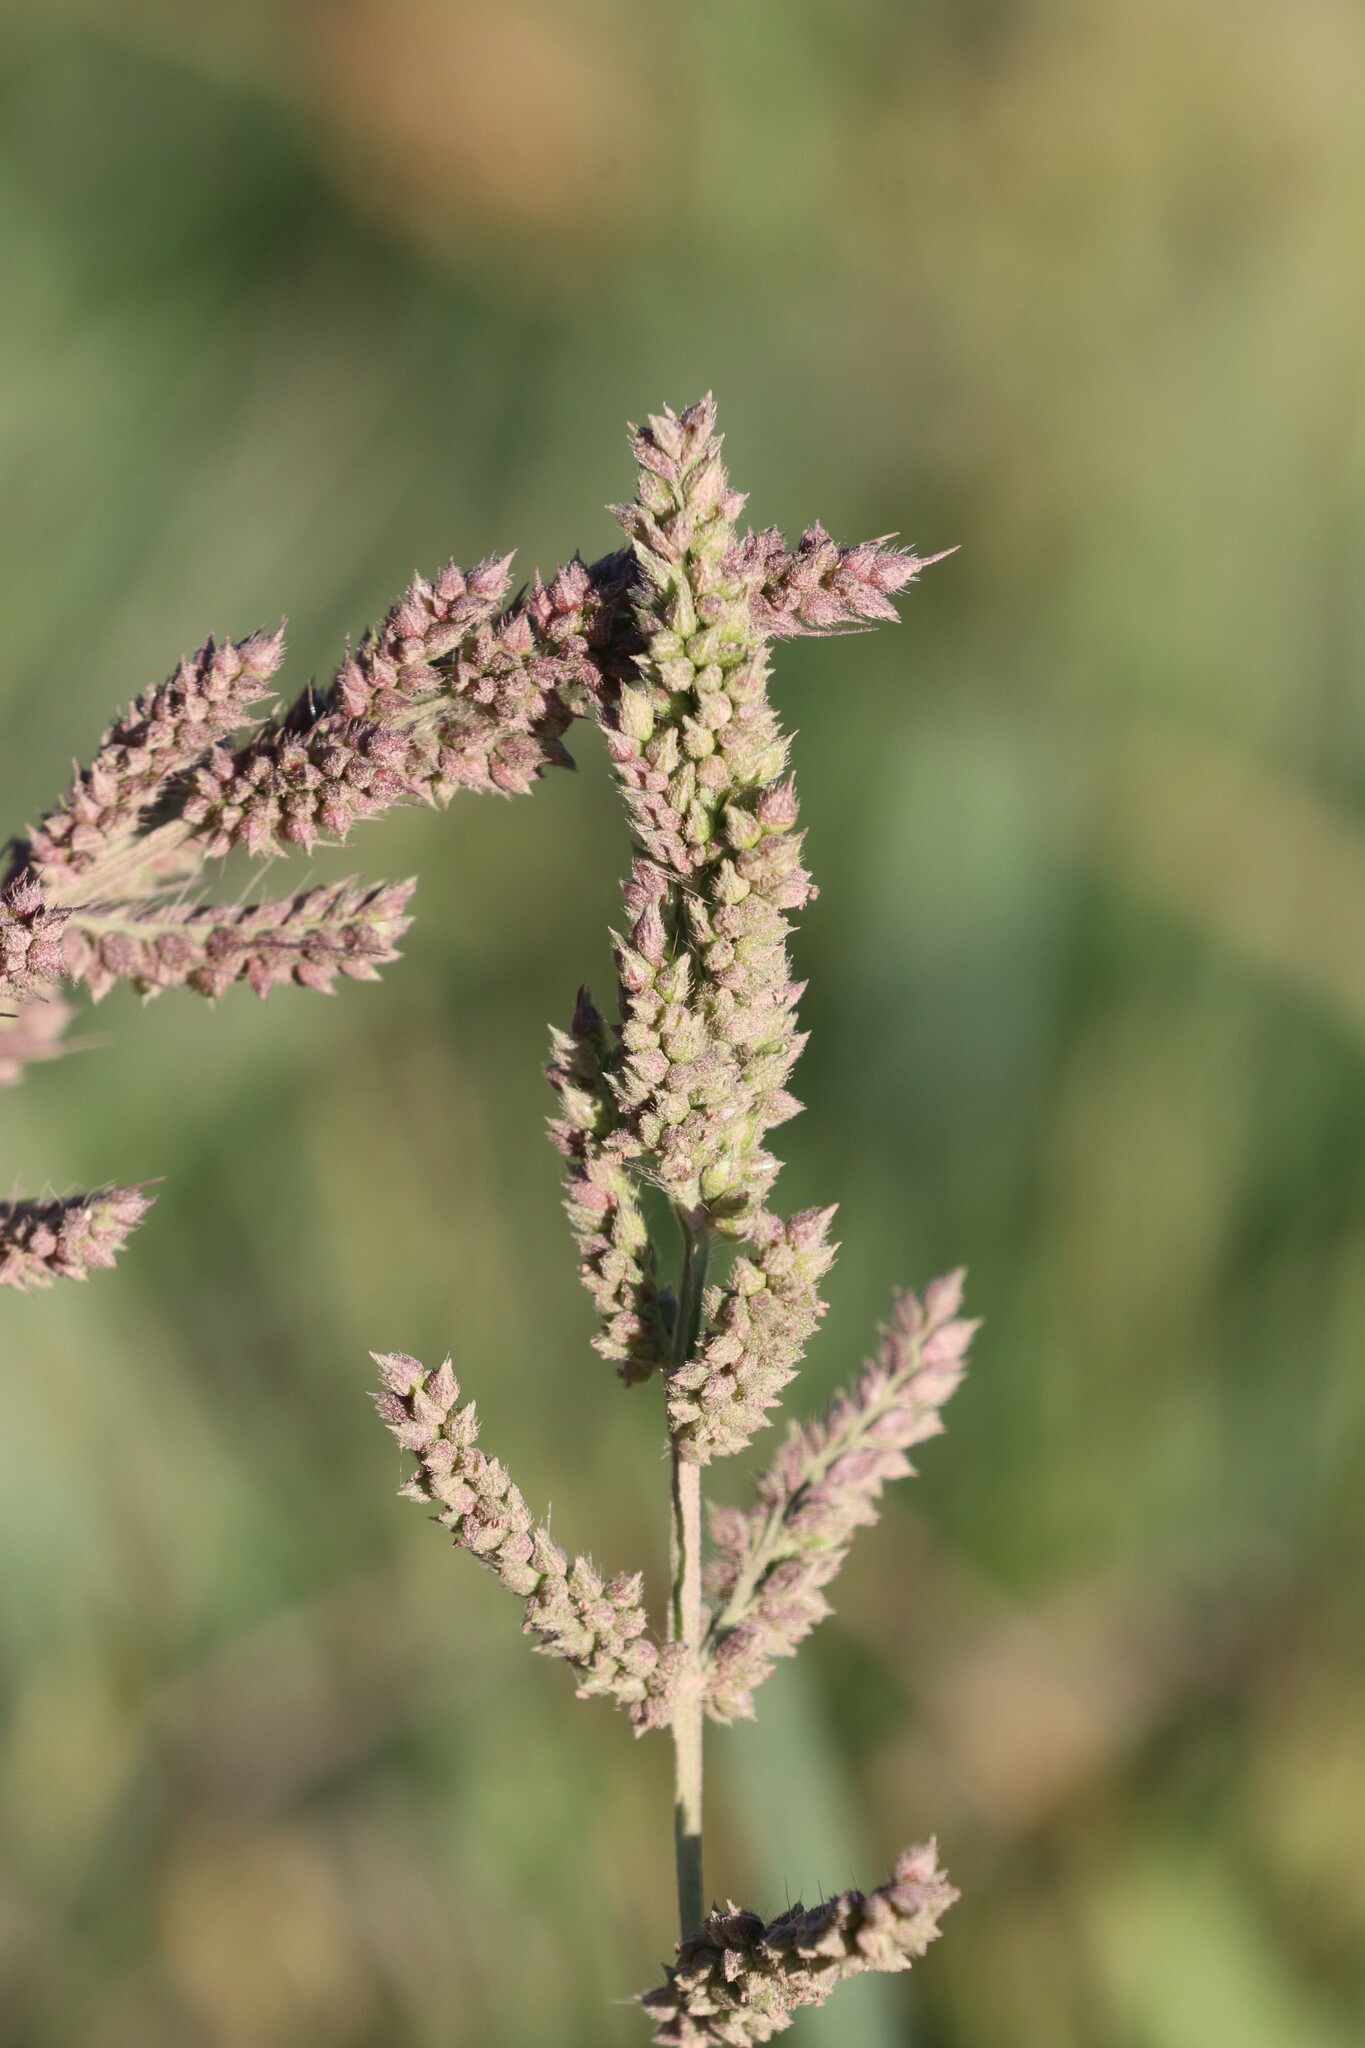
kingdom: Plantae
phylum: Tracheophyta
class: Liliopsida
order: Poales
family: Poaceae
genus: Echinochloa
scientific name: Echinochloa crus-galli
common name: Cockspur
